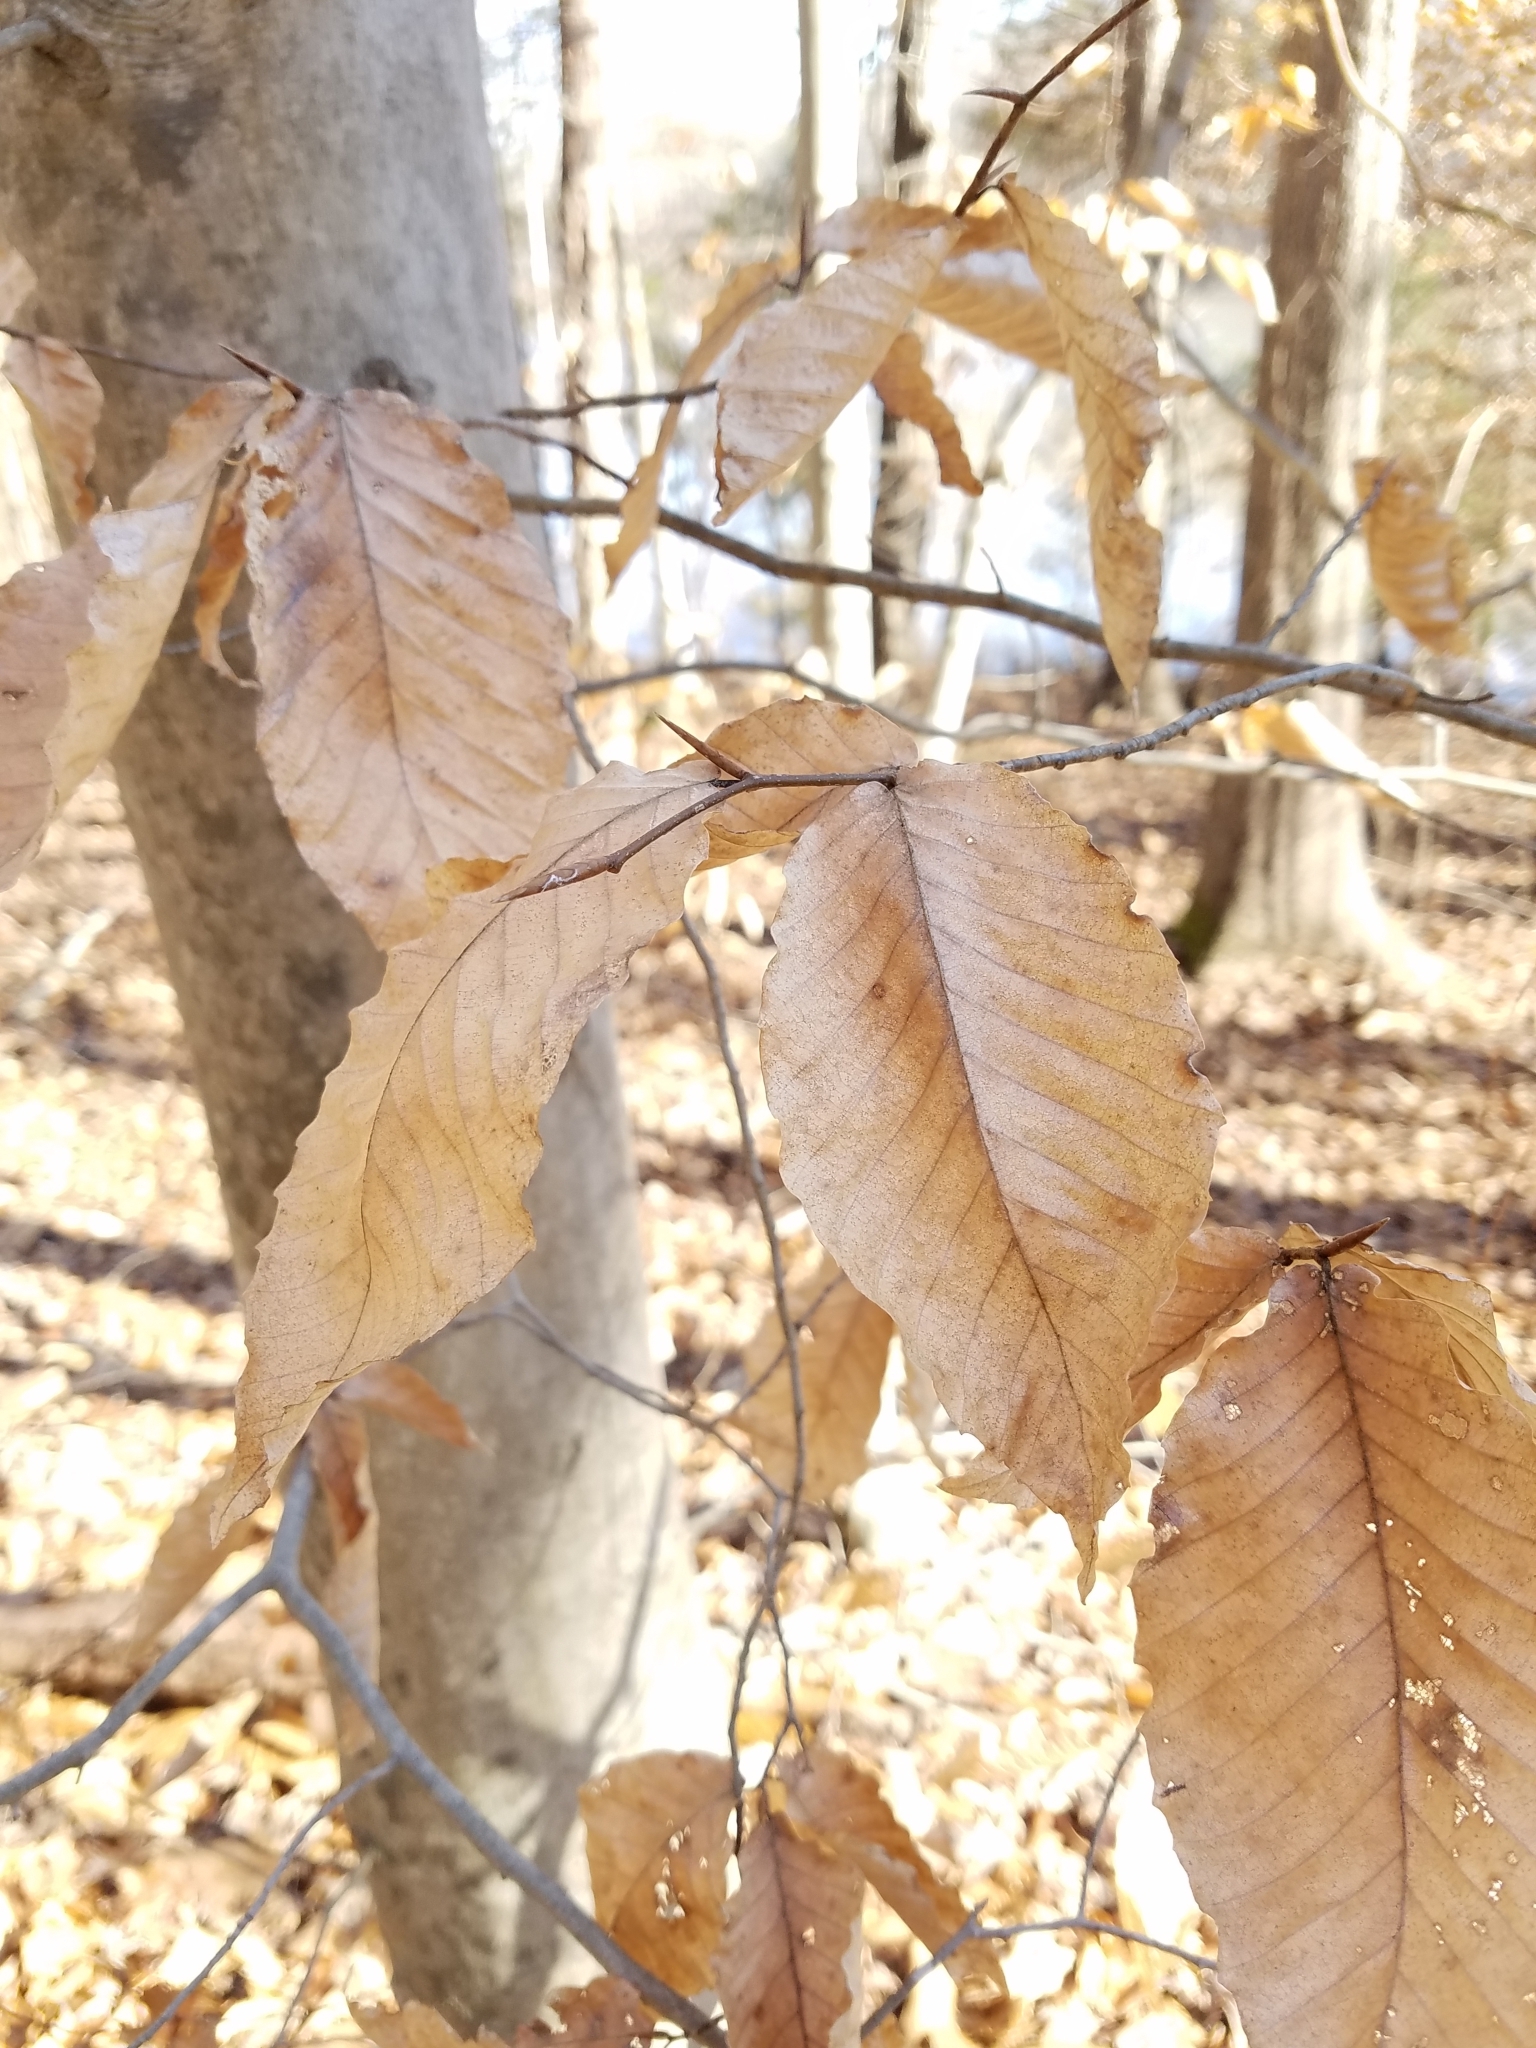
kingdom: Plantae
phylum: Tracheophyta
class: Magnoliopsida
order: Fagales
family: Fagaceae
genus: Fagus
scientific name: Fagus grandifolia
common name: American beech
